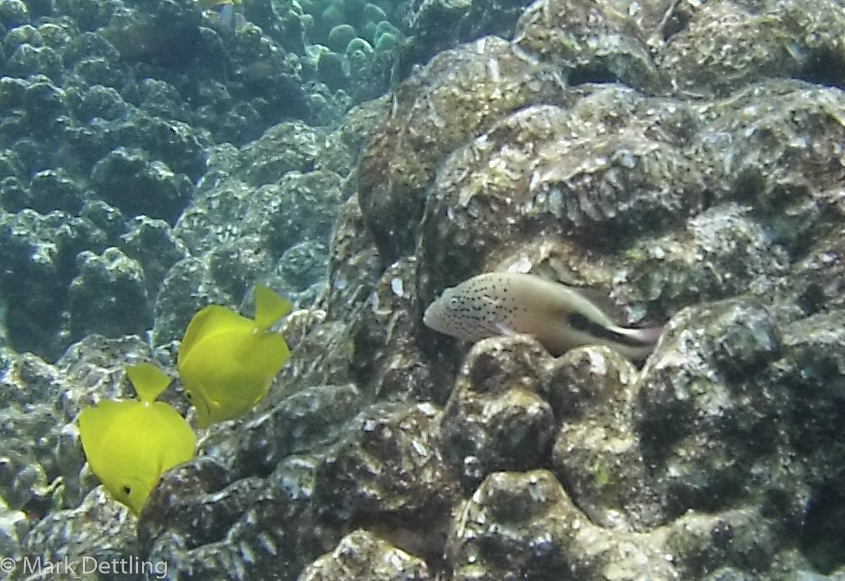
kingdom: Animalia
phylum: Chordata
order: Perciformes
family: Cirrhitidae
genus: Paracirrhites
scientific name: Paracirrhites forsteri
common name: Freckled hawkfish
